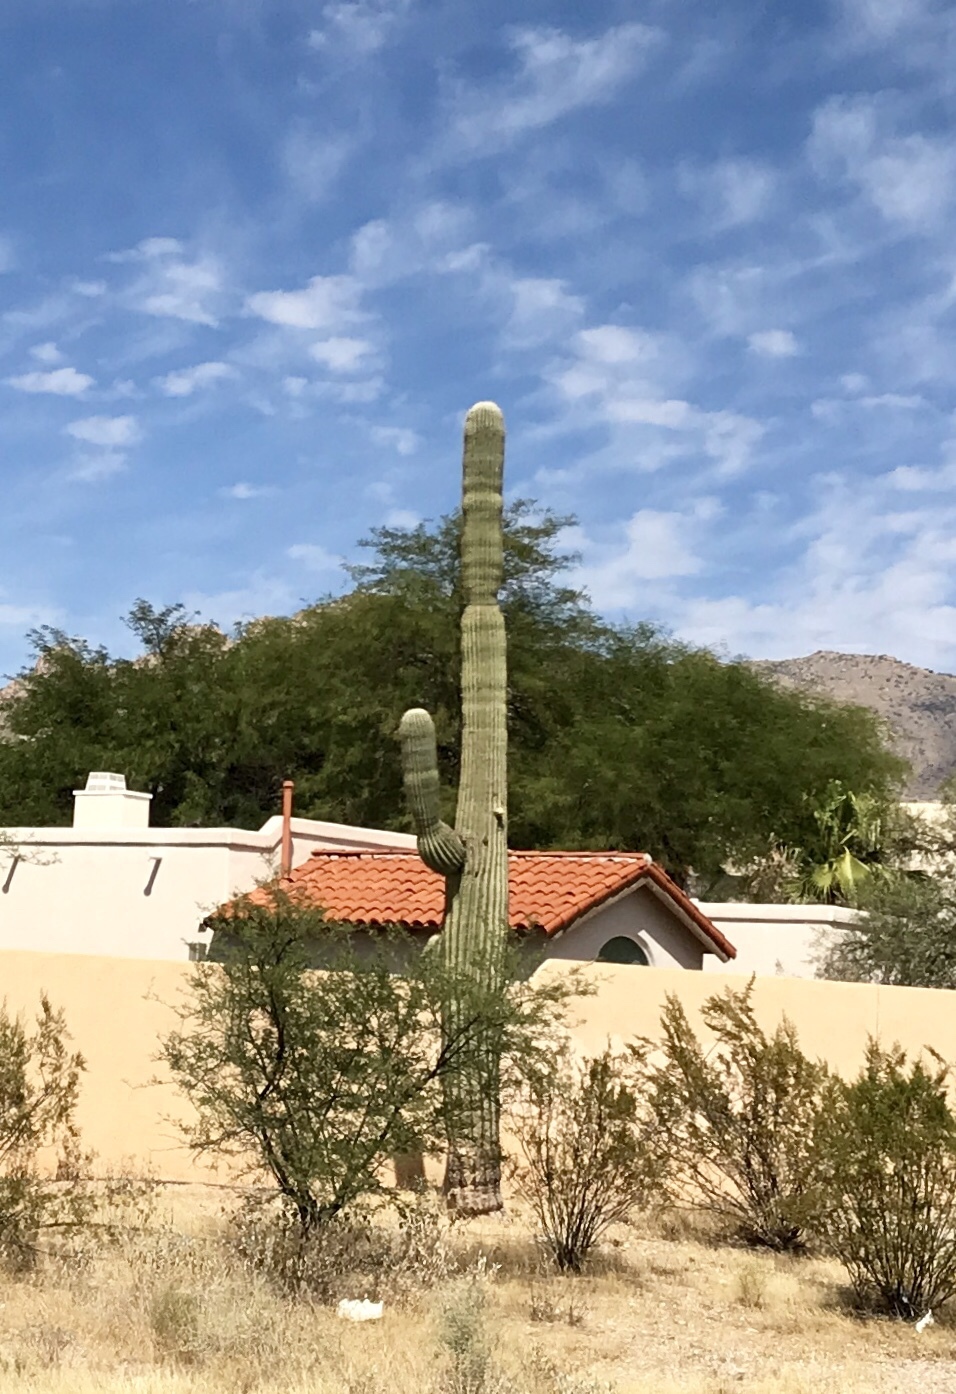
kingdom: Plantae
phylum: Tracheophyta
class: Magnoliopsida
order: Caryophyllales
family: Cactaceae
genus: Carnegiea
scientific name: Carnegiea gigantea
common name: Saguaro
